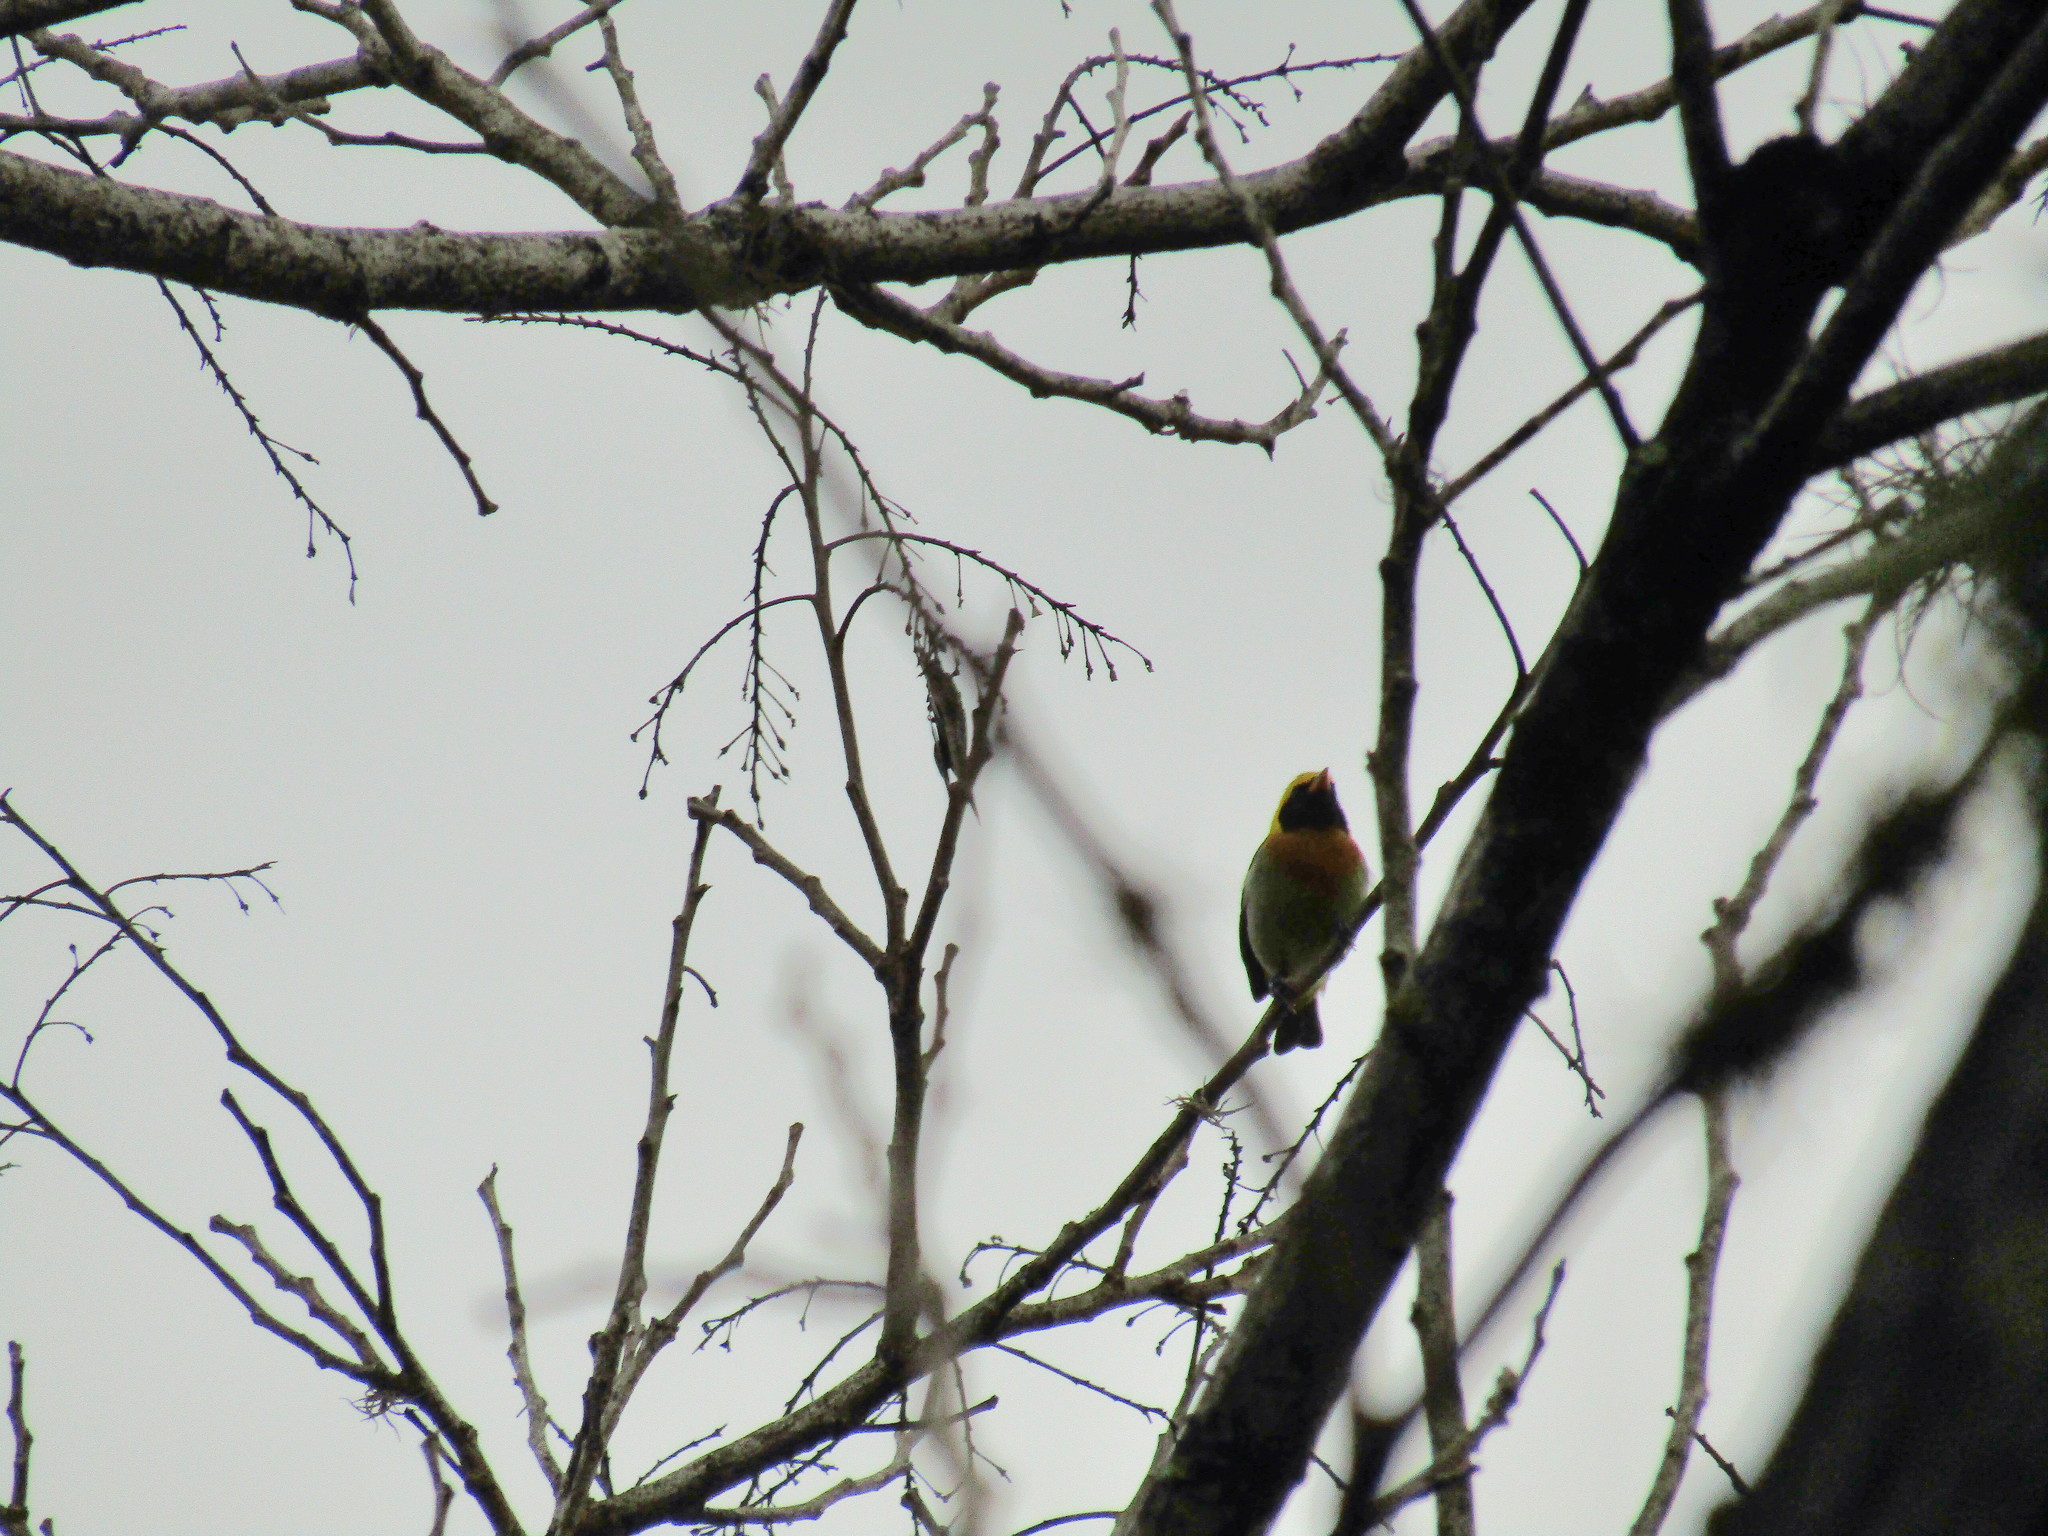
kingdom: Animalia
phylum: Chordata
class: Aves
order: Passeriformes
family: Thraupidae
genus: Hemithraupis
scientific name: Hemithraupis guira
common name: Guira tanager
